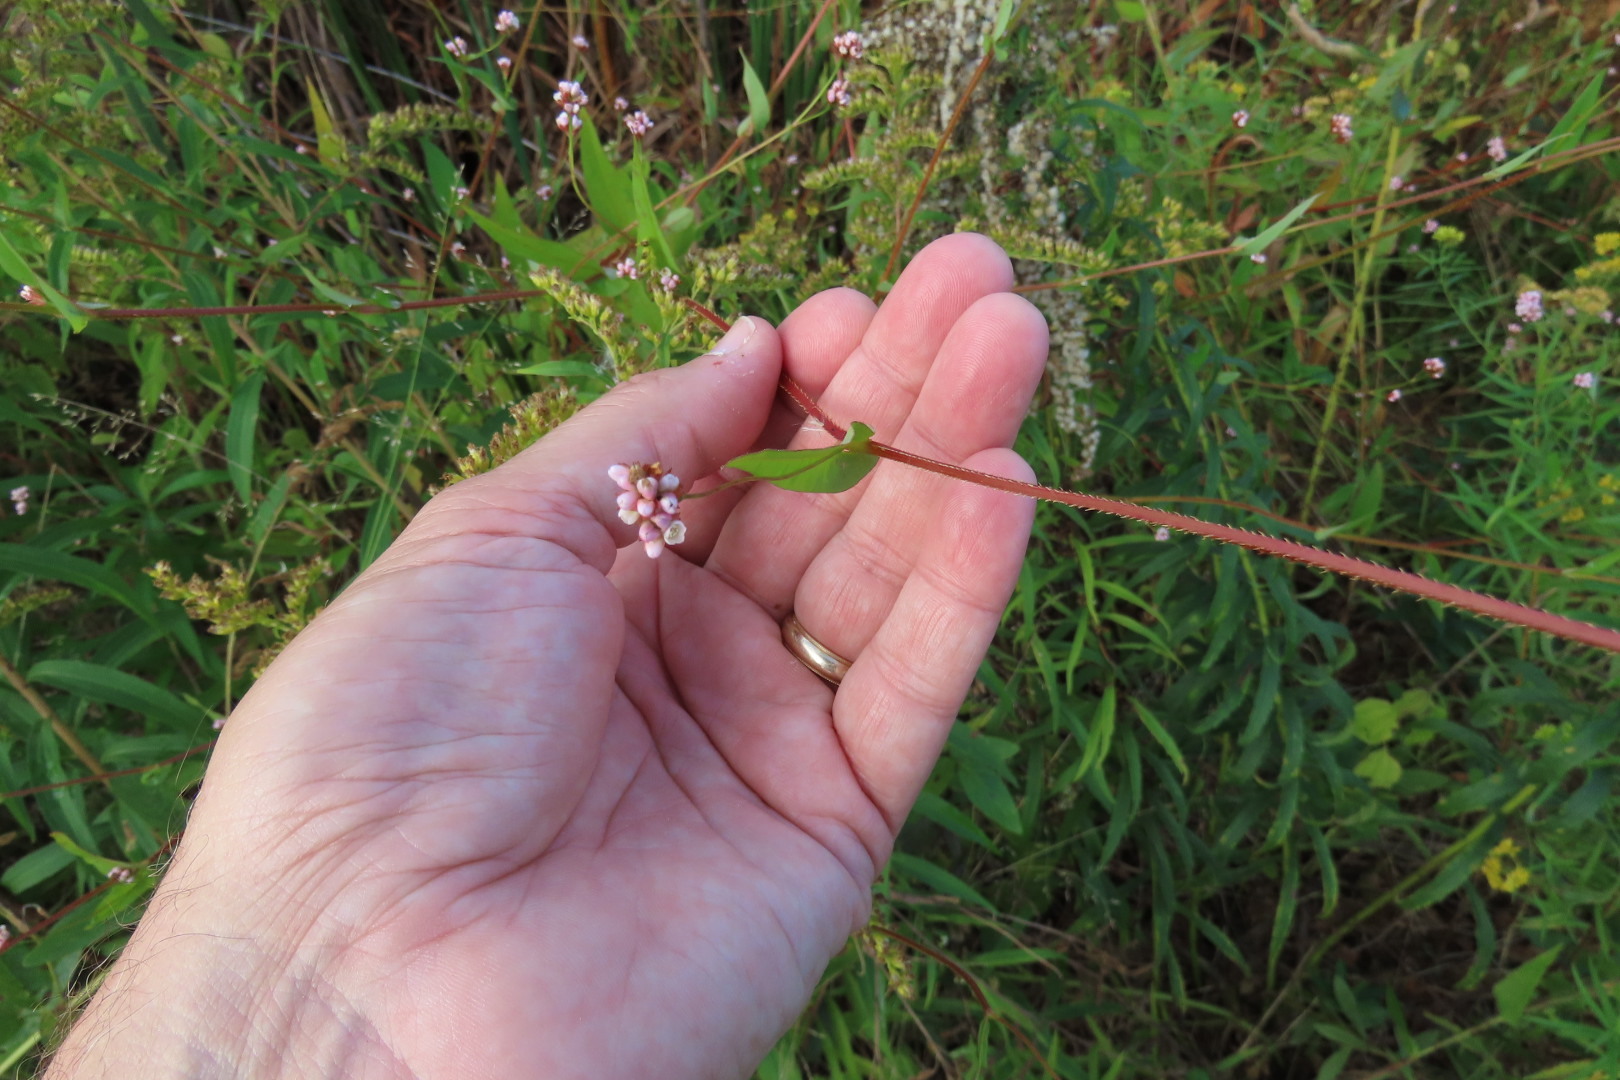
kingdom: Plantae
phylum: Tracheophyta
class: Magnoliopsida
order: Caryophyllales
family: Polygonaceae
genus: Persicaria
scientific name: Persicaria sagittata
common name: American tearthumb
